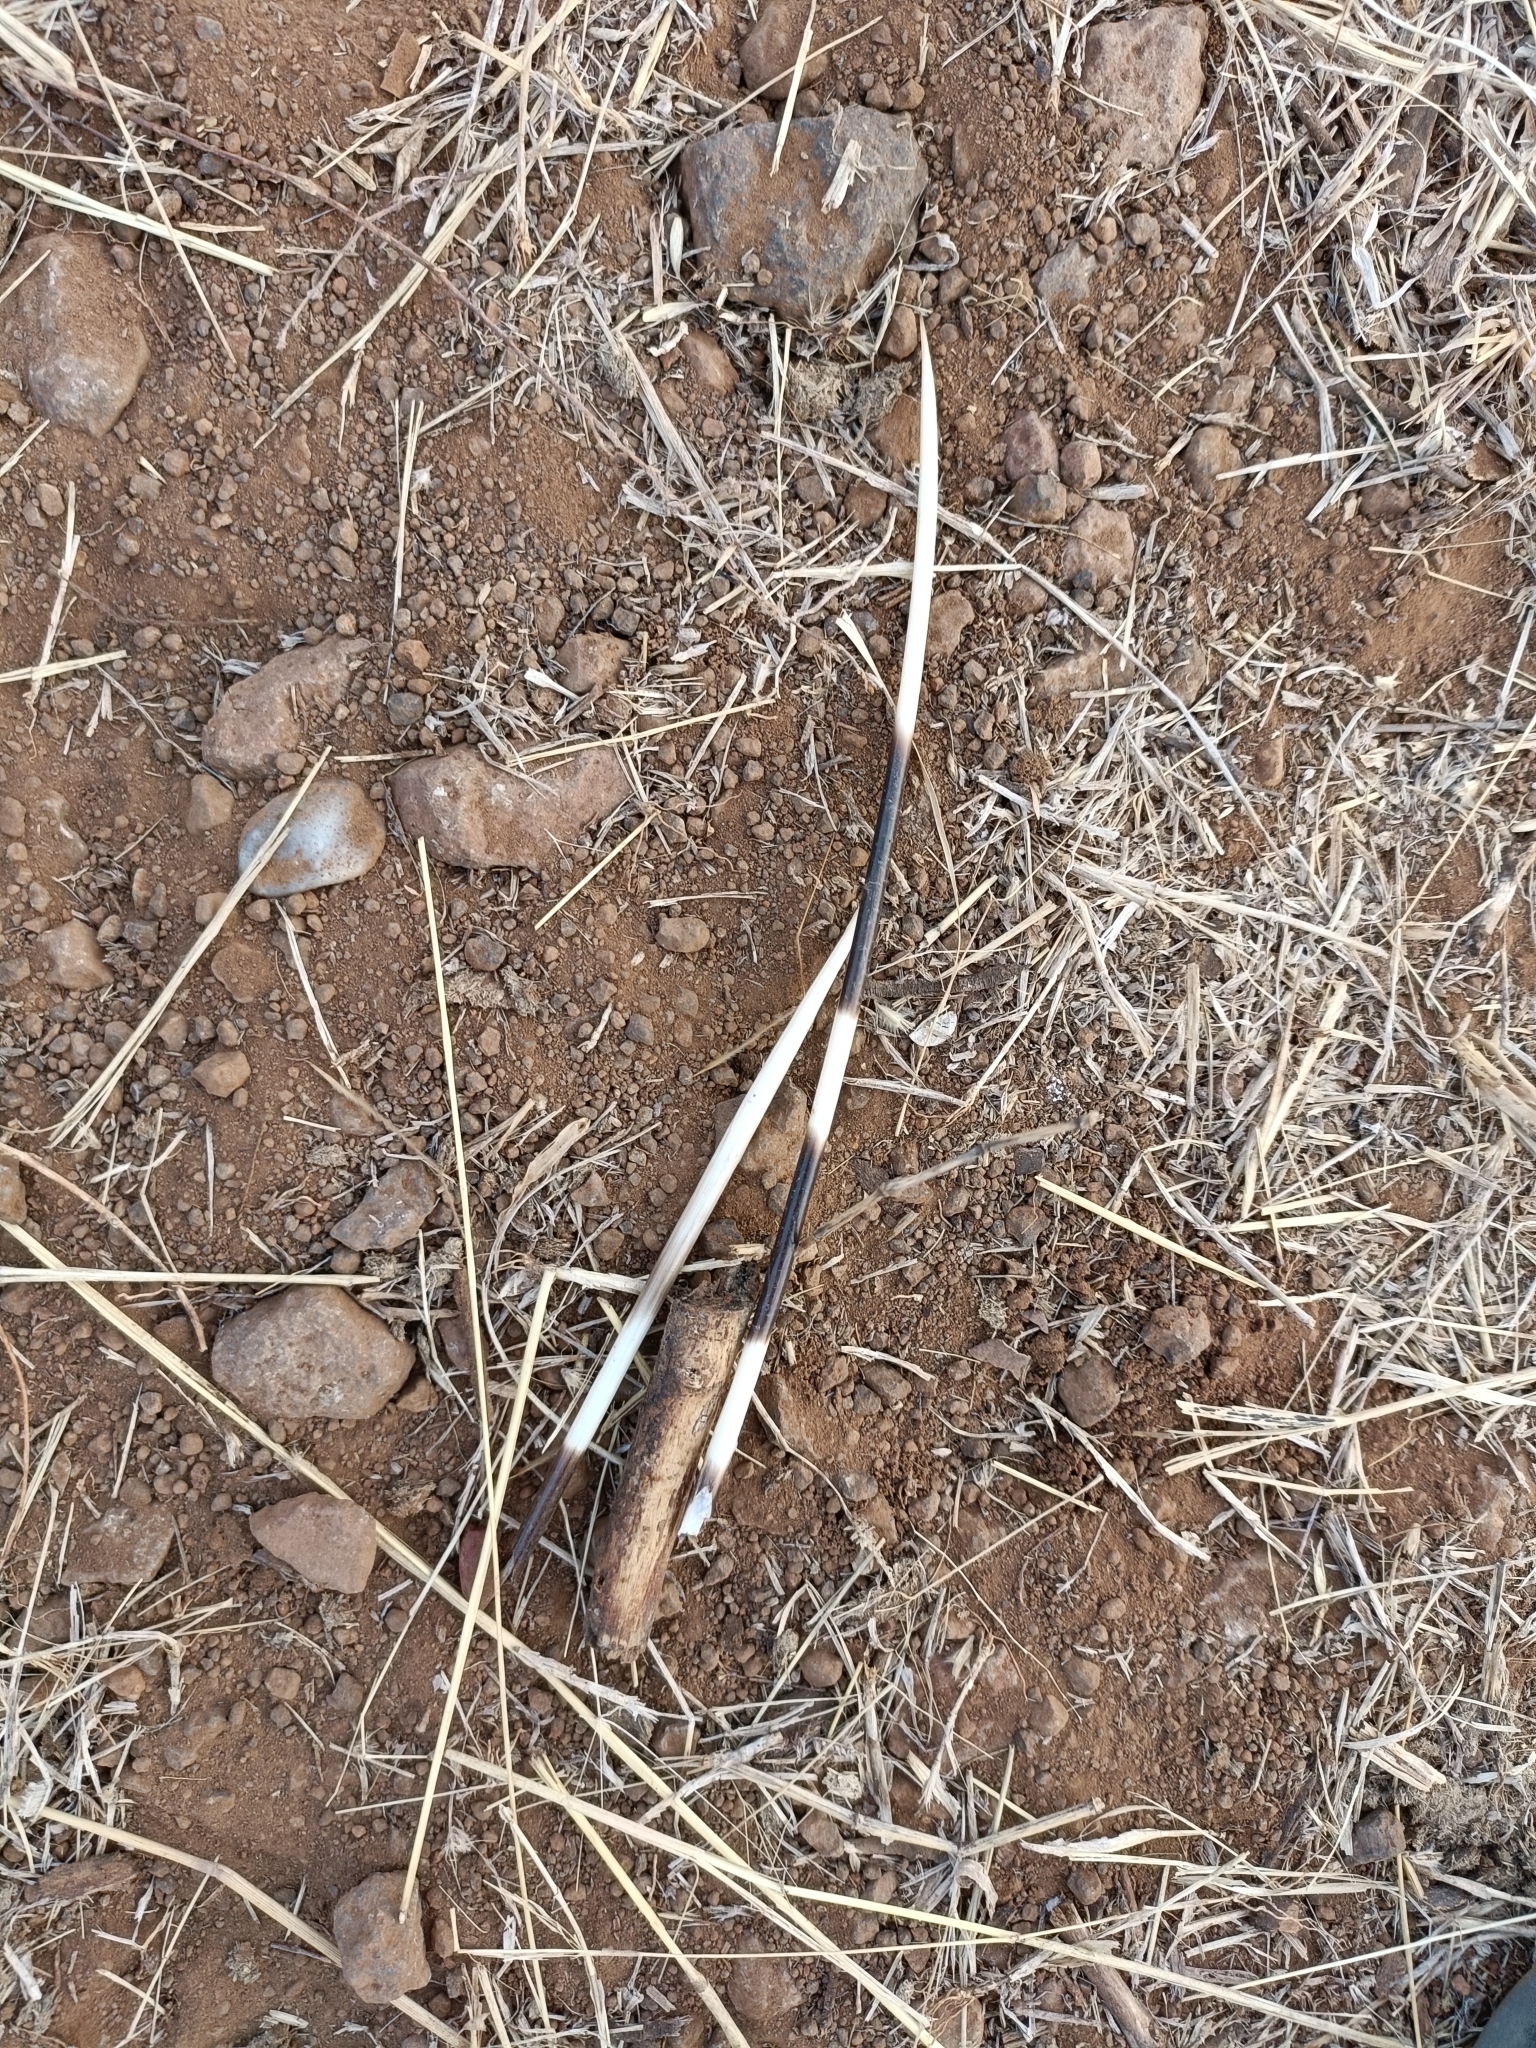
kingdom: Animalia
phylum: Chordata
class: Mammalia
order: Rodentia
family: Hystricidae
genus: Hystrix
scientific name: Hystrix indica
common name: Indian crested porcupine
